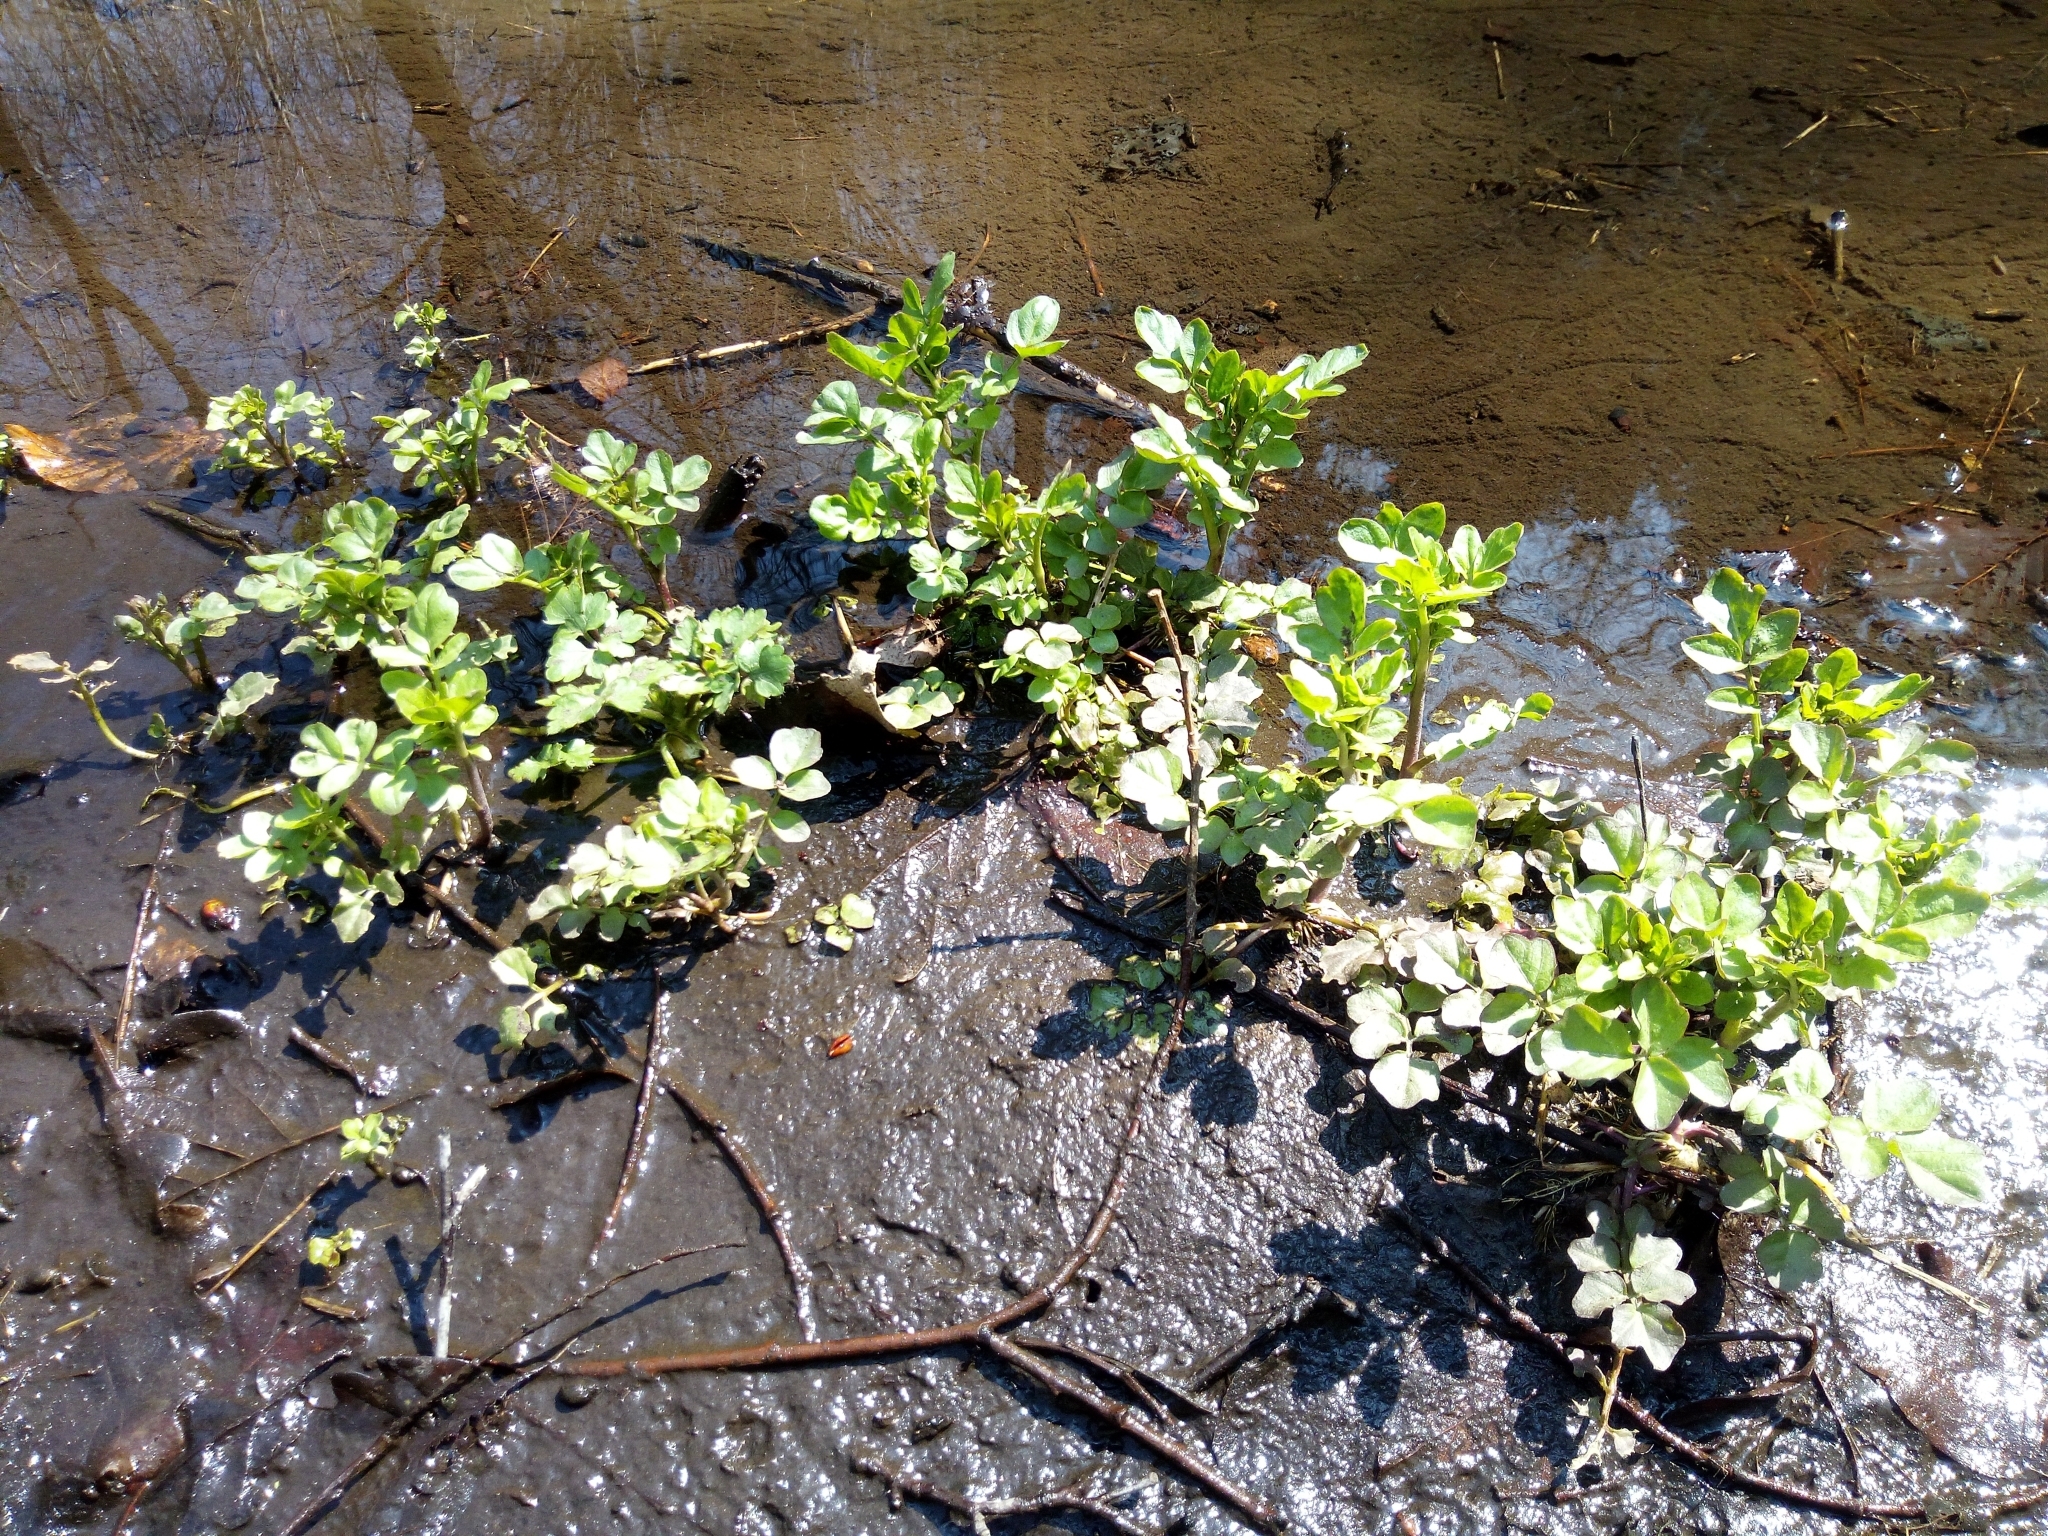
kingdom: Plantae
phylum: Tracheophyta
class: Magnoliopsida
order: Brassicales
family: Brassicaceae
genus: Cardamine
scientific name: Cardamine amara
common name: Large bitter-cress
